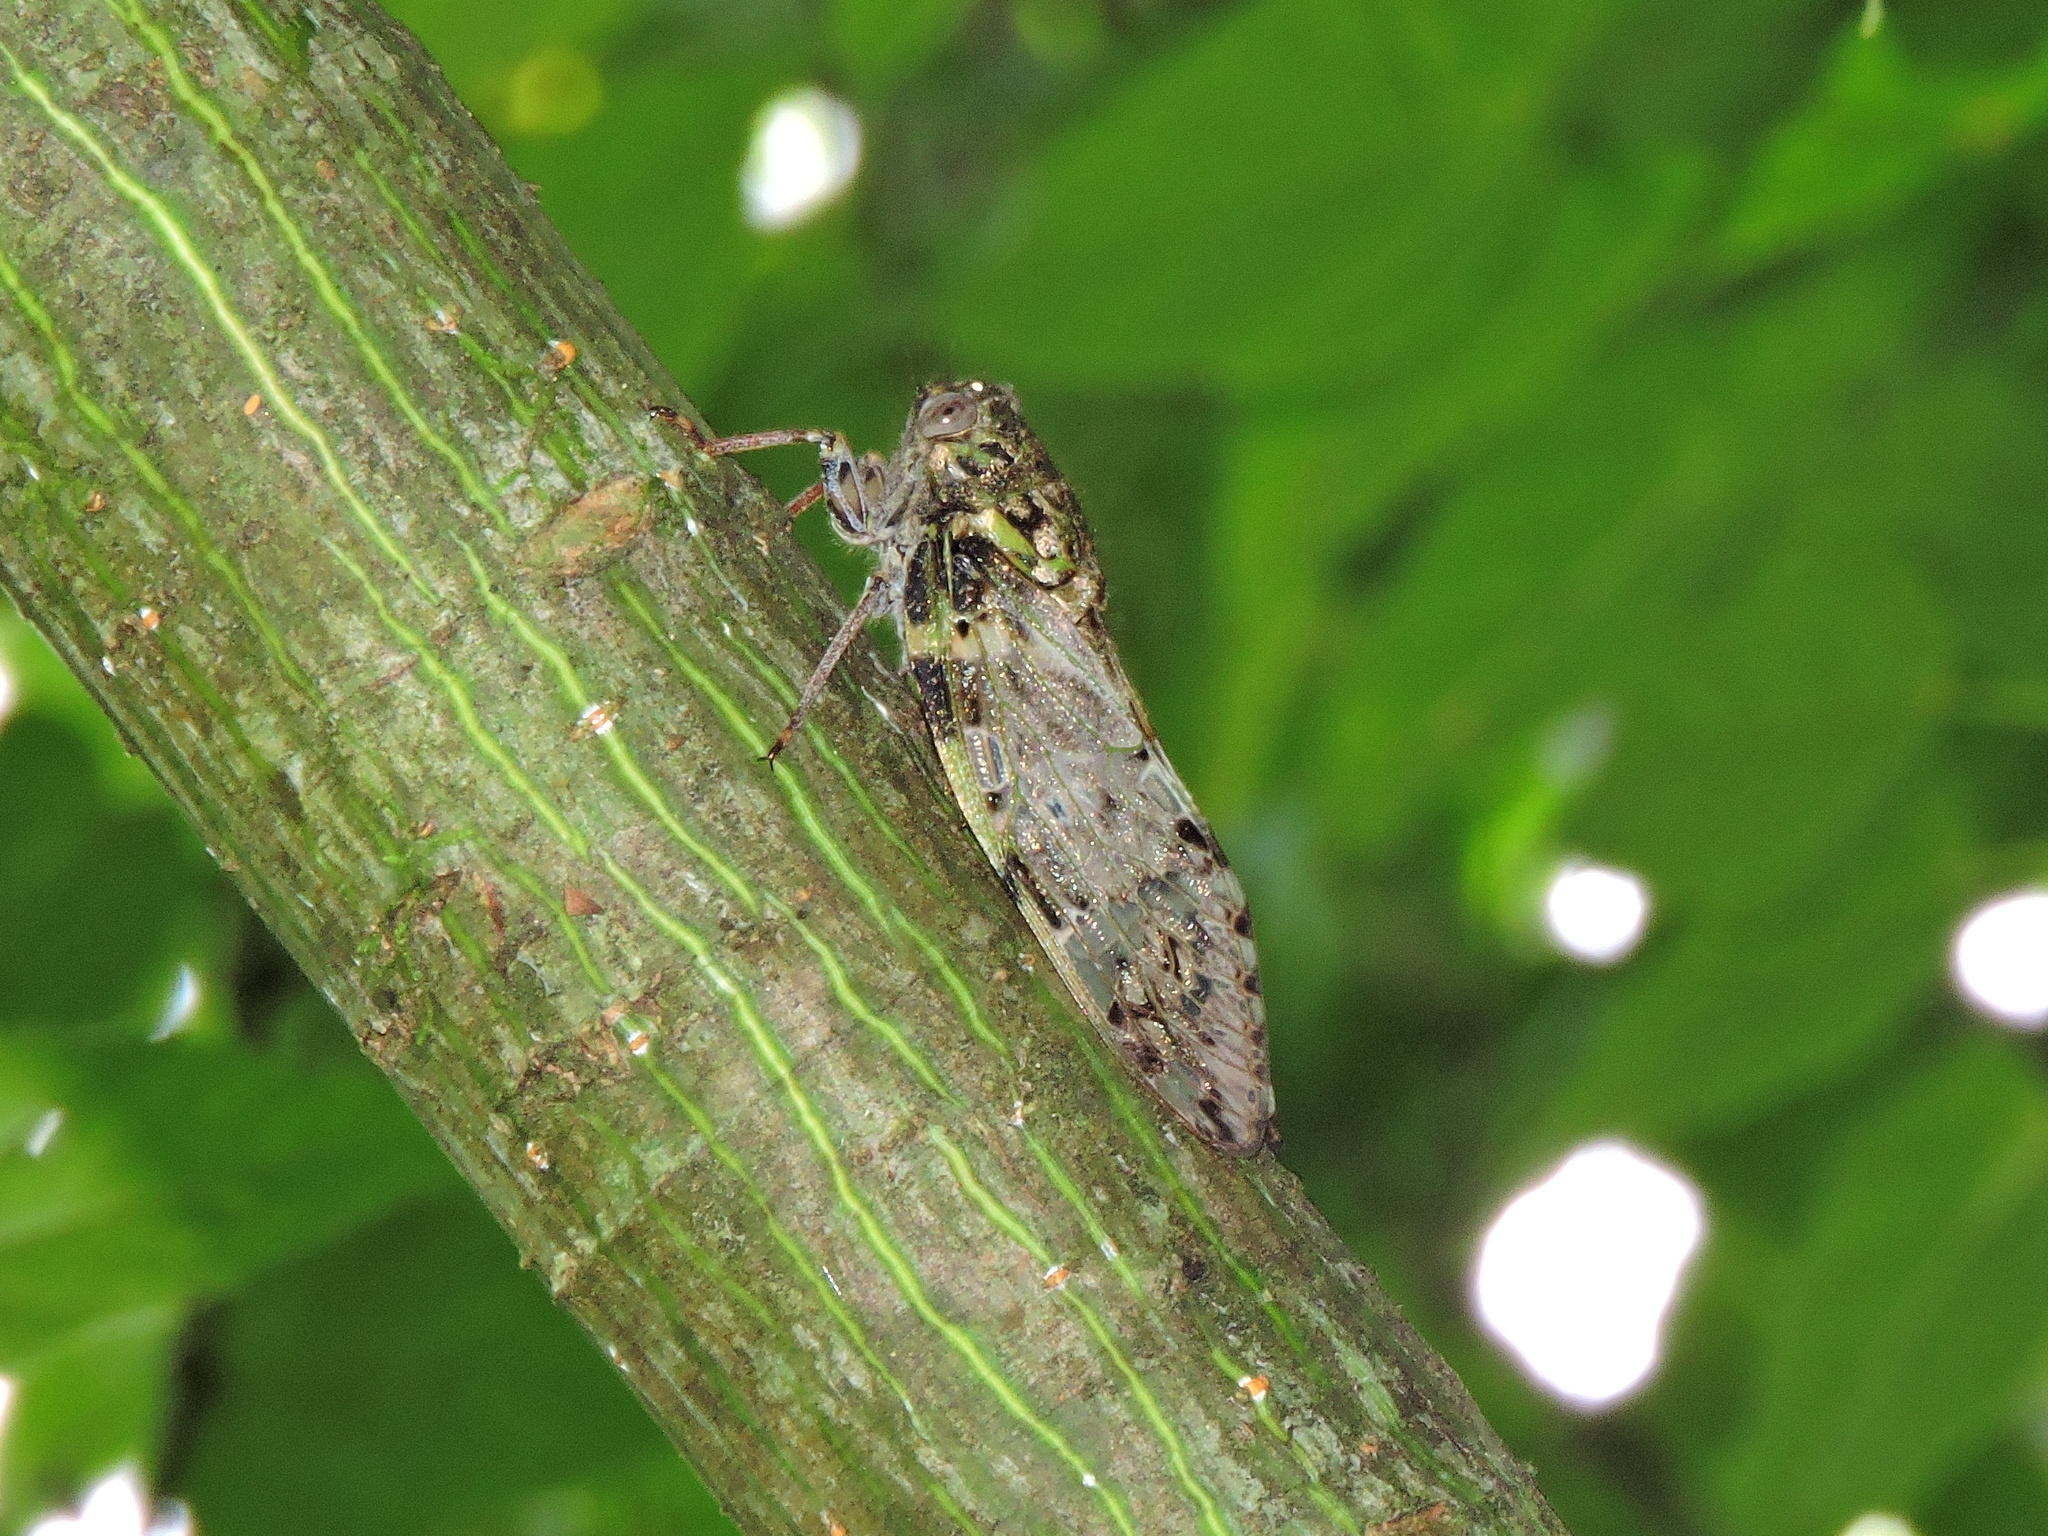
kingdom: Animalia
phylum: Arthropoda
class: Insecta
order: Hemiptera
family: Cicadidae
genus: Platypleura
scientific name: Platypleura kaempferi
